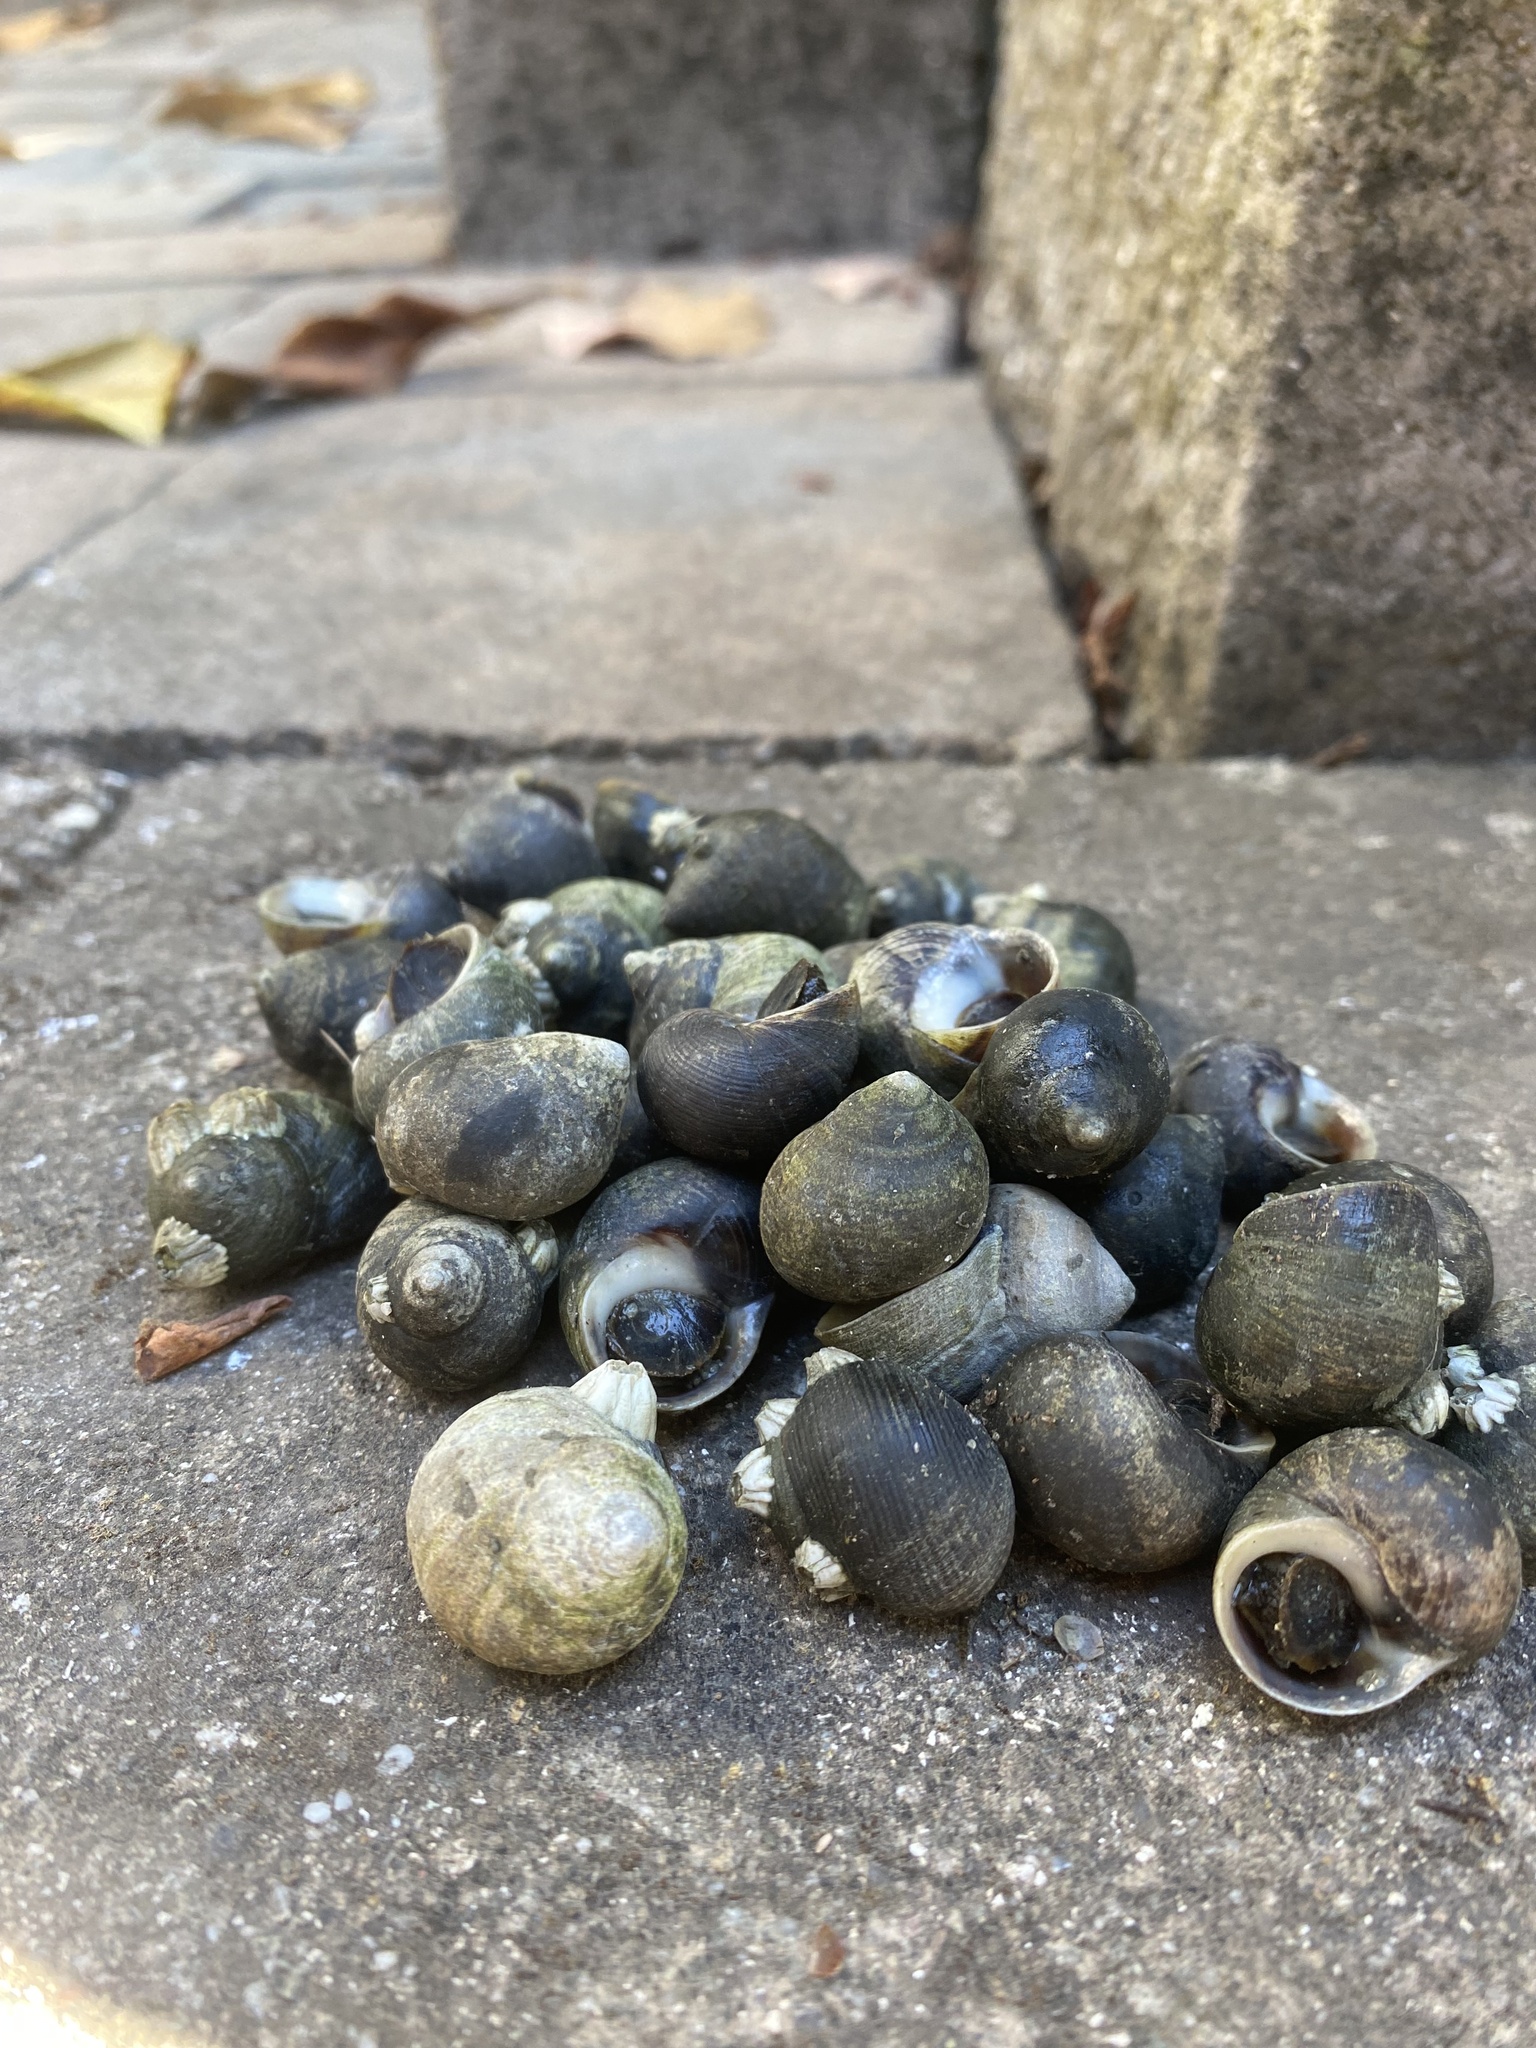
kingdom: Animalia
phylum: Mollusca
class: Gastropoda
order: Littorinimorpha
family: Littorinidae
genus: Littorina
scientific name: Littorina littorea
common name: Common periwinkle
